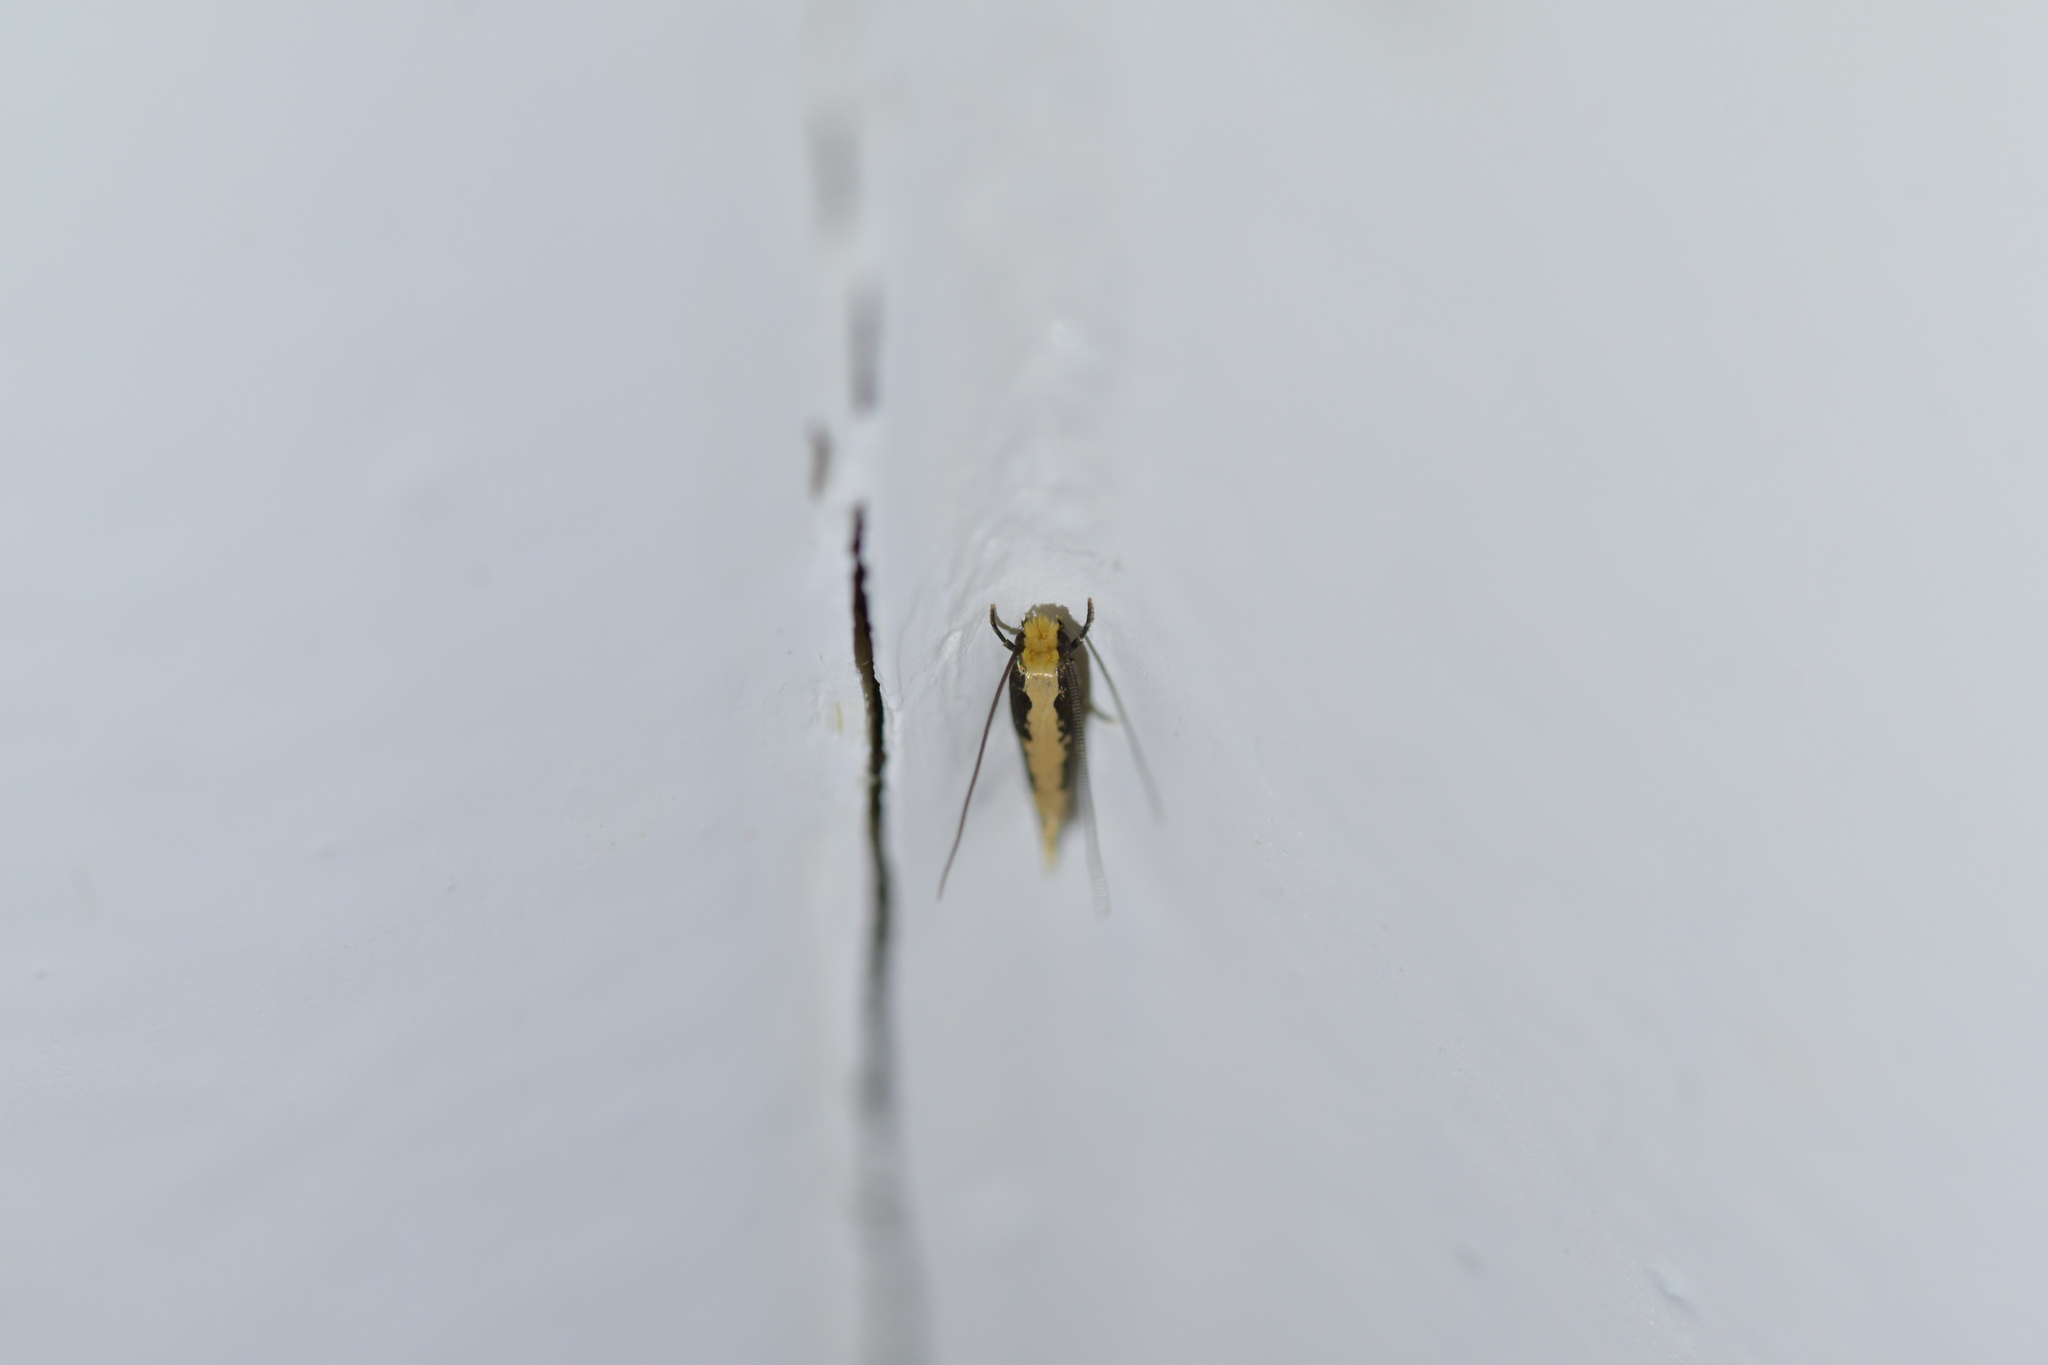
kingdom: Animalia
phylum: Arthropoda
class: Insecta
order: Lepidoptera
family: Tineidae
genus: Monopis
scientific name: Monopis crocicapitella
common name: Moth
